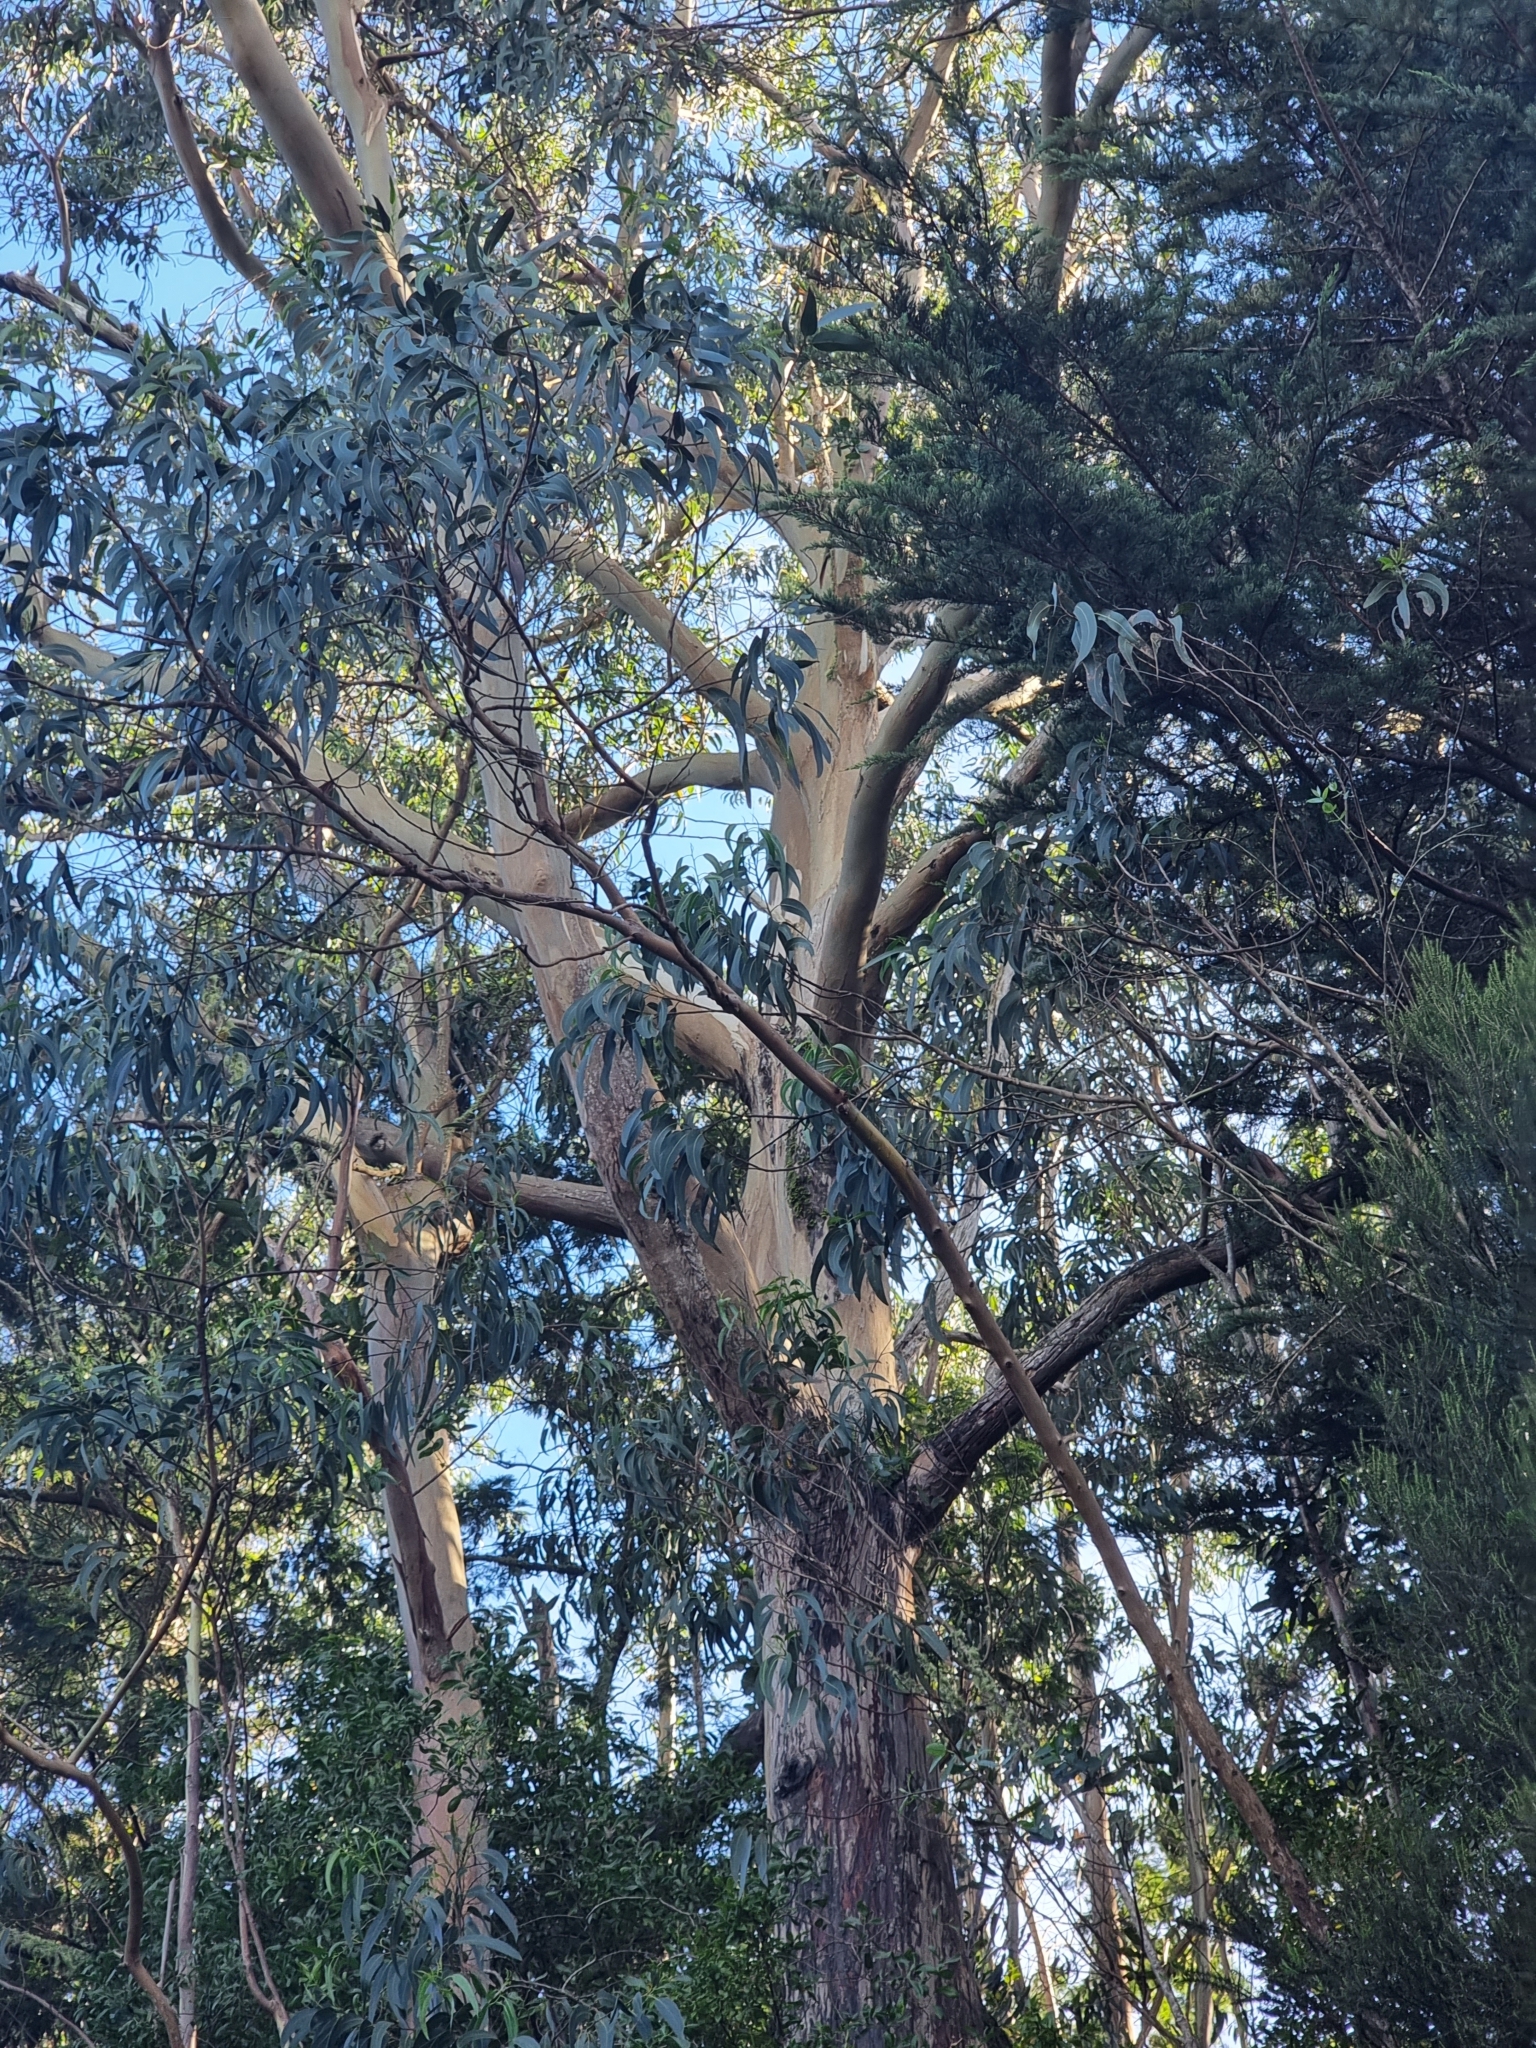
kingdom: Plantae
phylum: Tracheophyta
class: Magnoliopsida
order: Myrtales
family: Myrtaceae
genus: Eucalyptus
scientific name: Eucalyptus globulus
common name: Southern blue-gum
